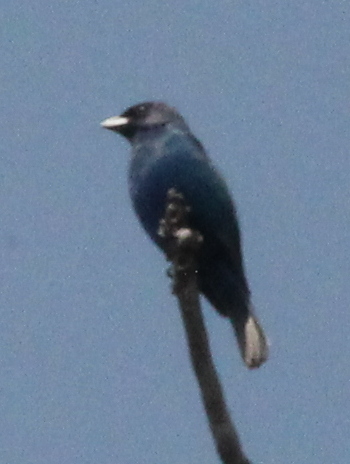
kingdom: Animalia
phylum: Chordata
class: Aves
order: Passeriformes
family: Cardinalidae
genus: Passerina
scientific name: Passerina cyanea
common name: Indigo bunting
